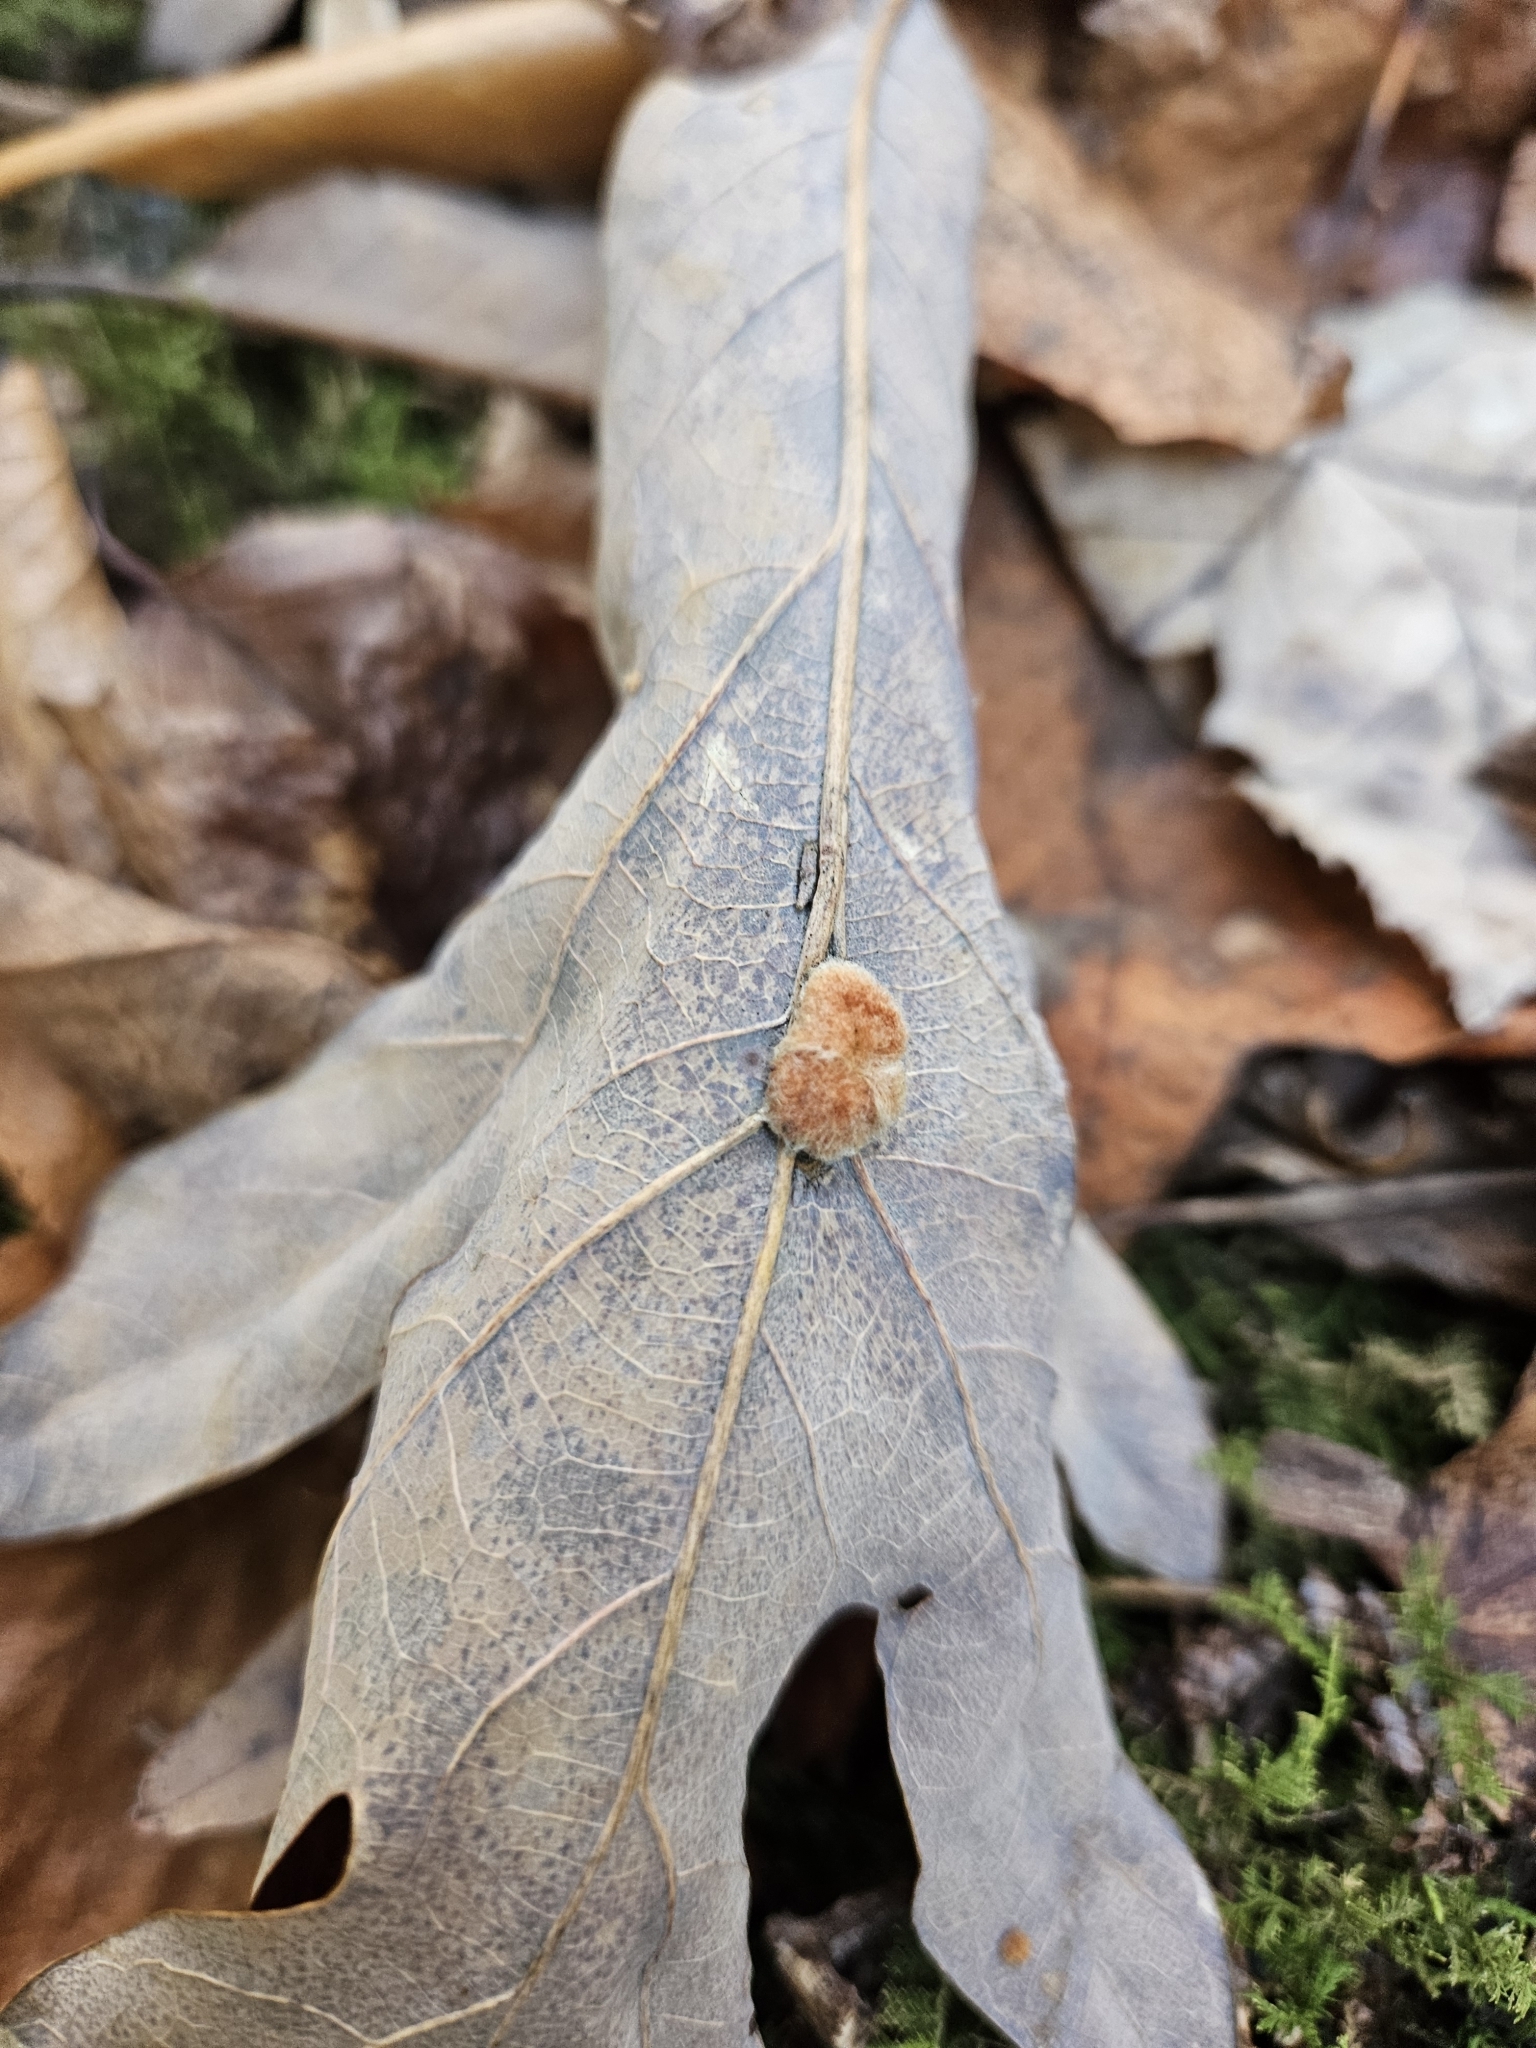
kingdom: Animalia
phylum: Arthropoda
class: Insecta
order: Hymenoptera
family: Cynipidae
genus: Andricus
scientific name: Andricus quercusflocci
